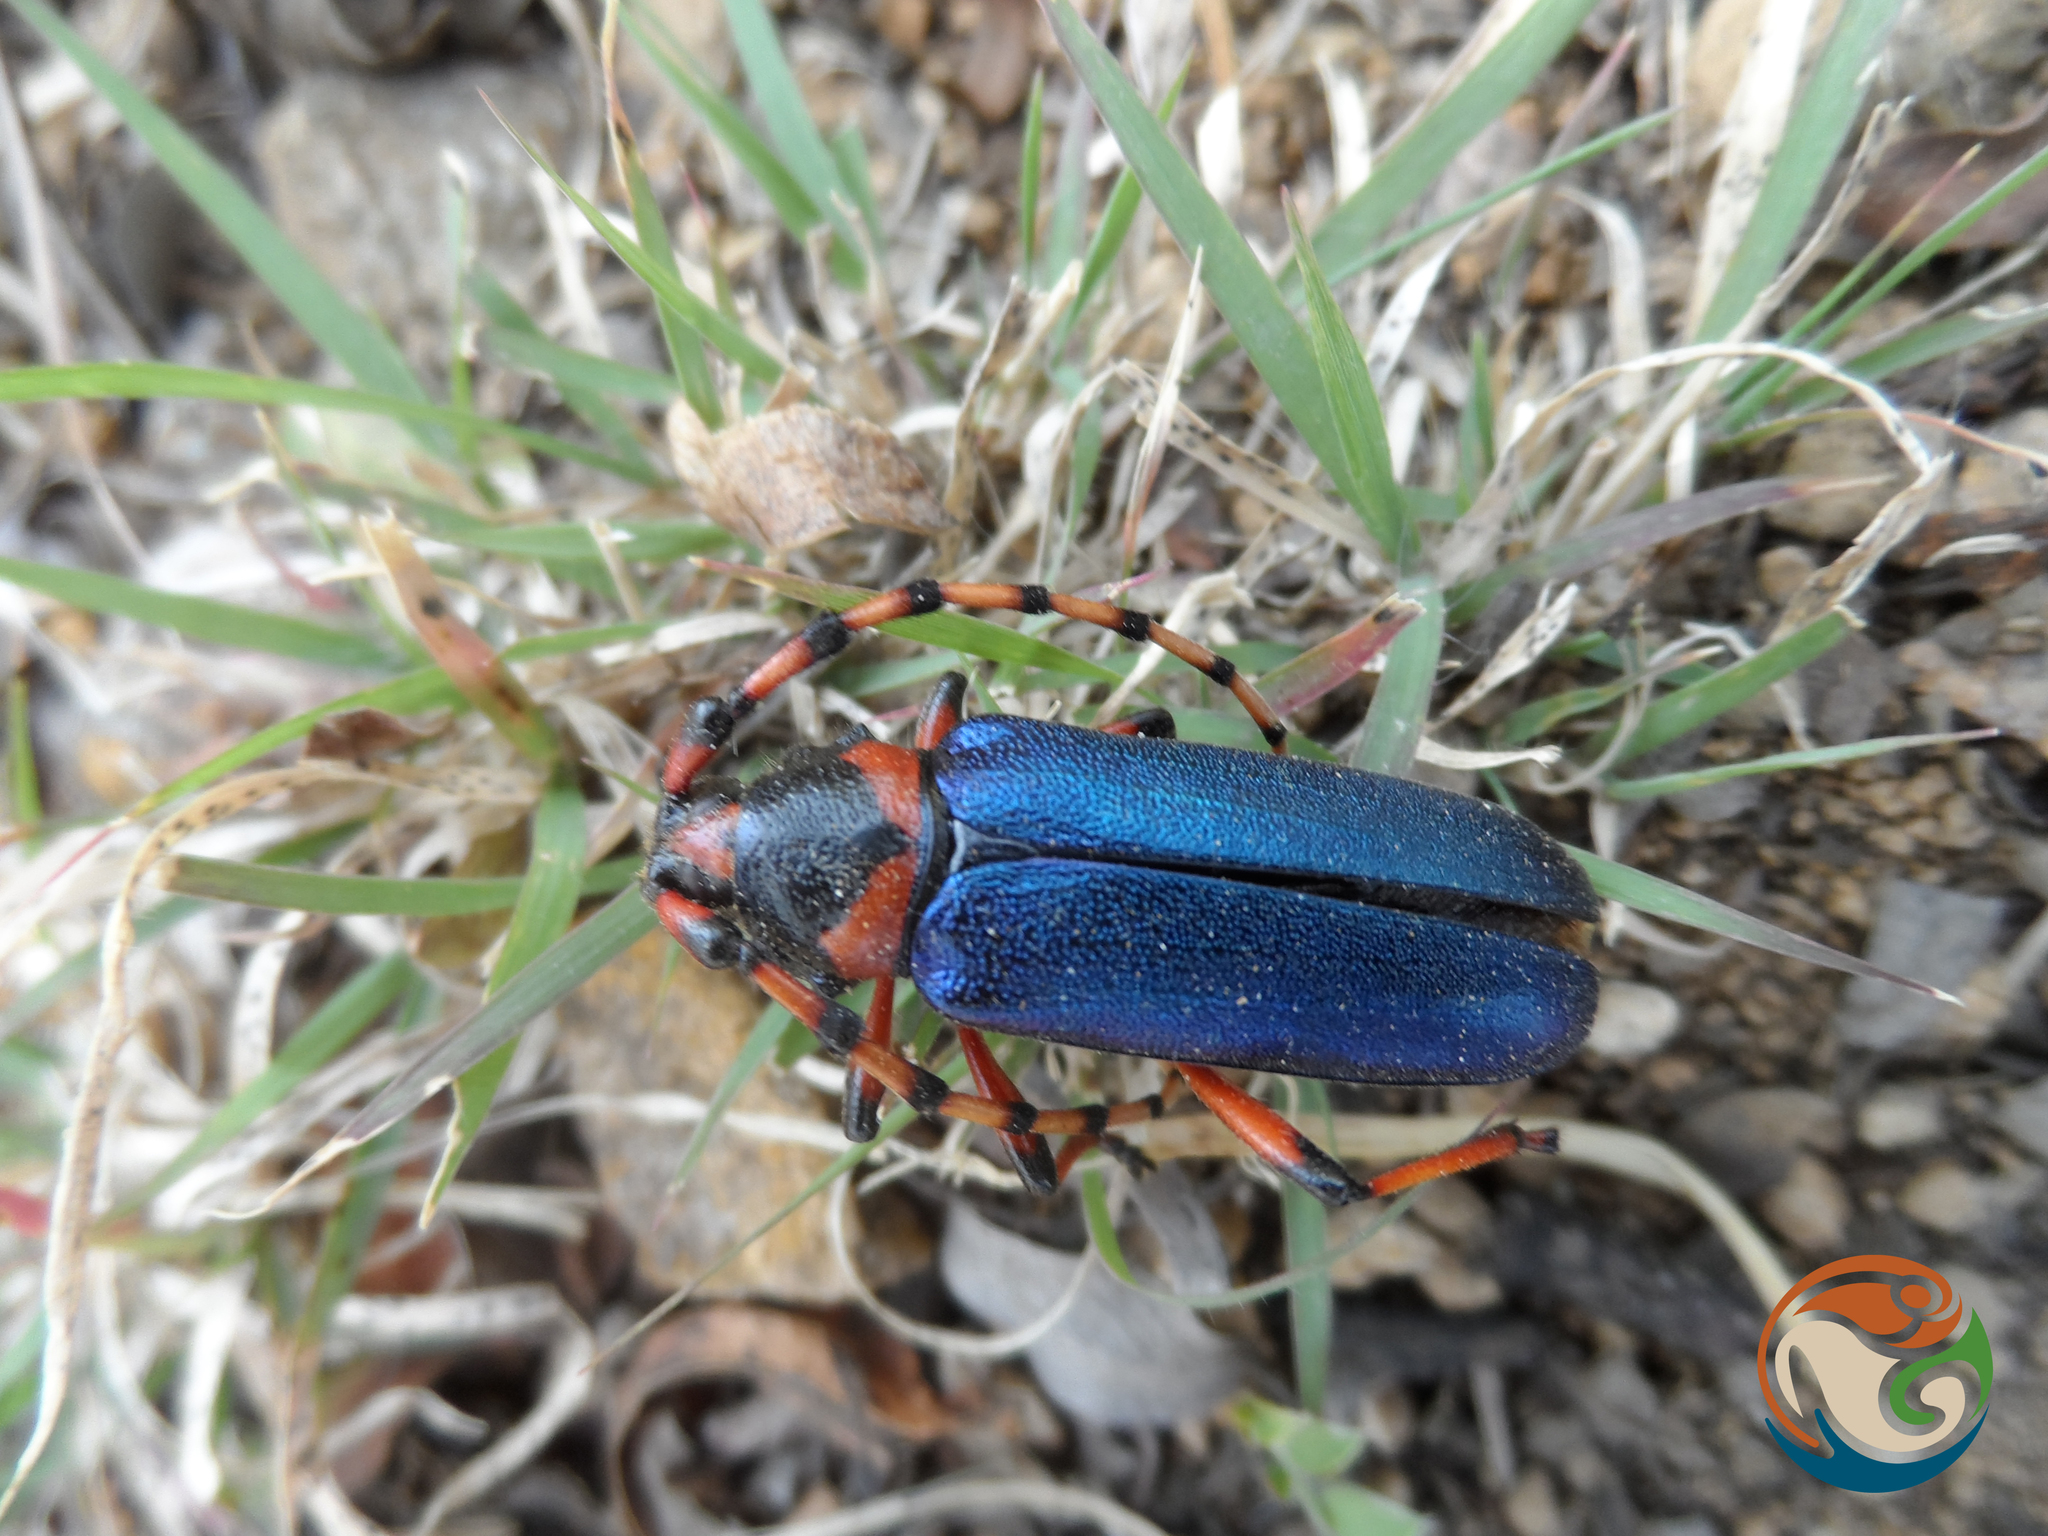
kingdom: Animalia
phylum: Arthropoda
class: Insecta
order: Coleoptera
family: Cerambycidae
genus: Stenaspis
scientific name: Stenaspis verticalis
